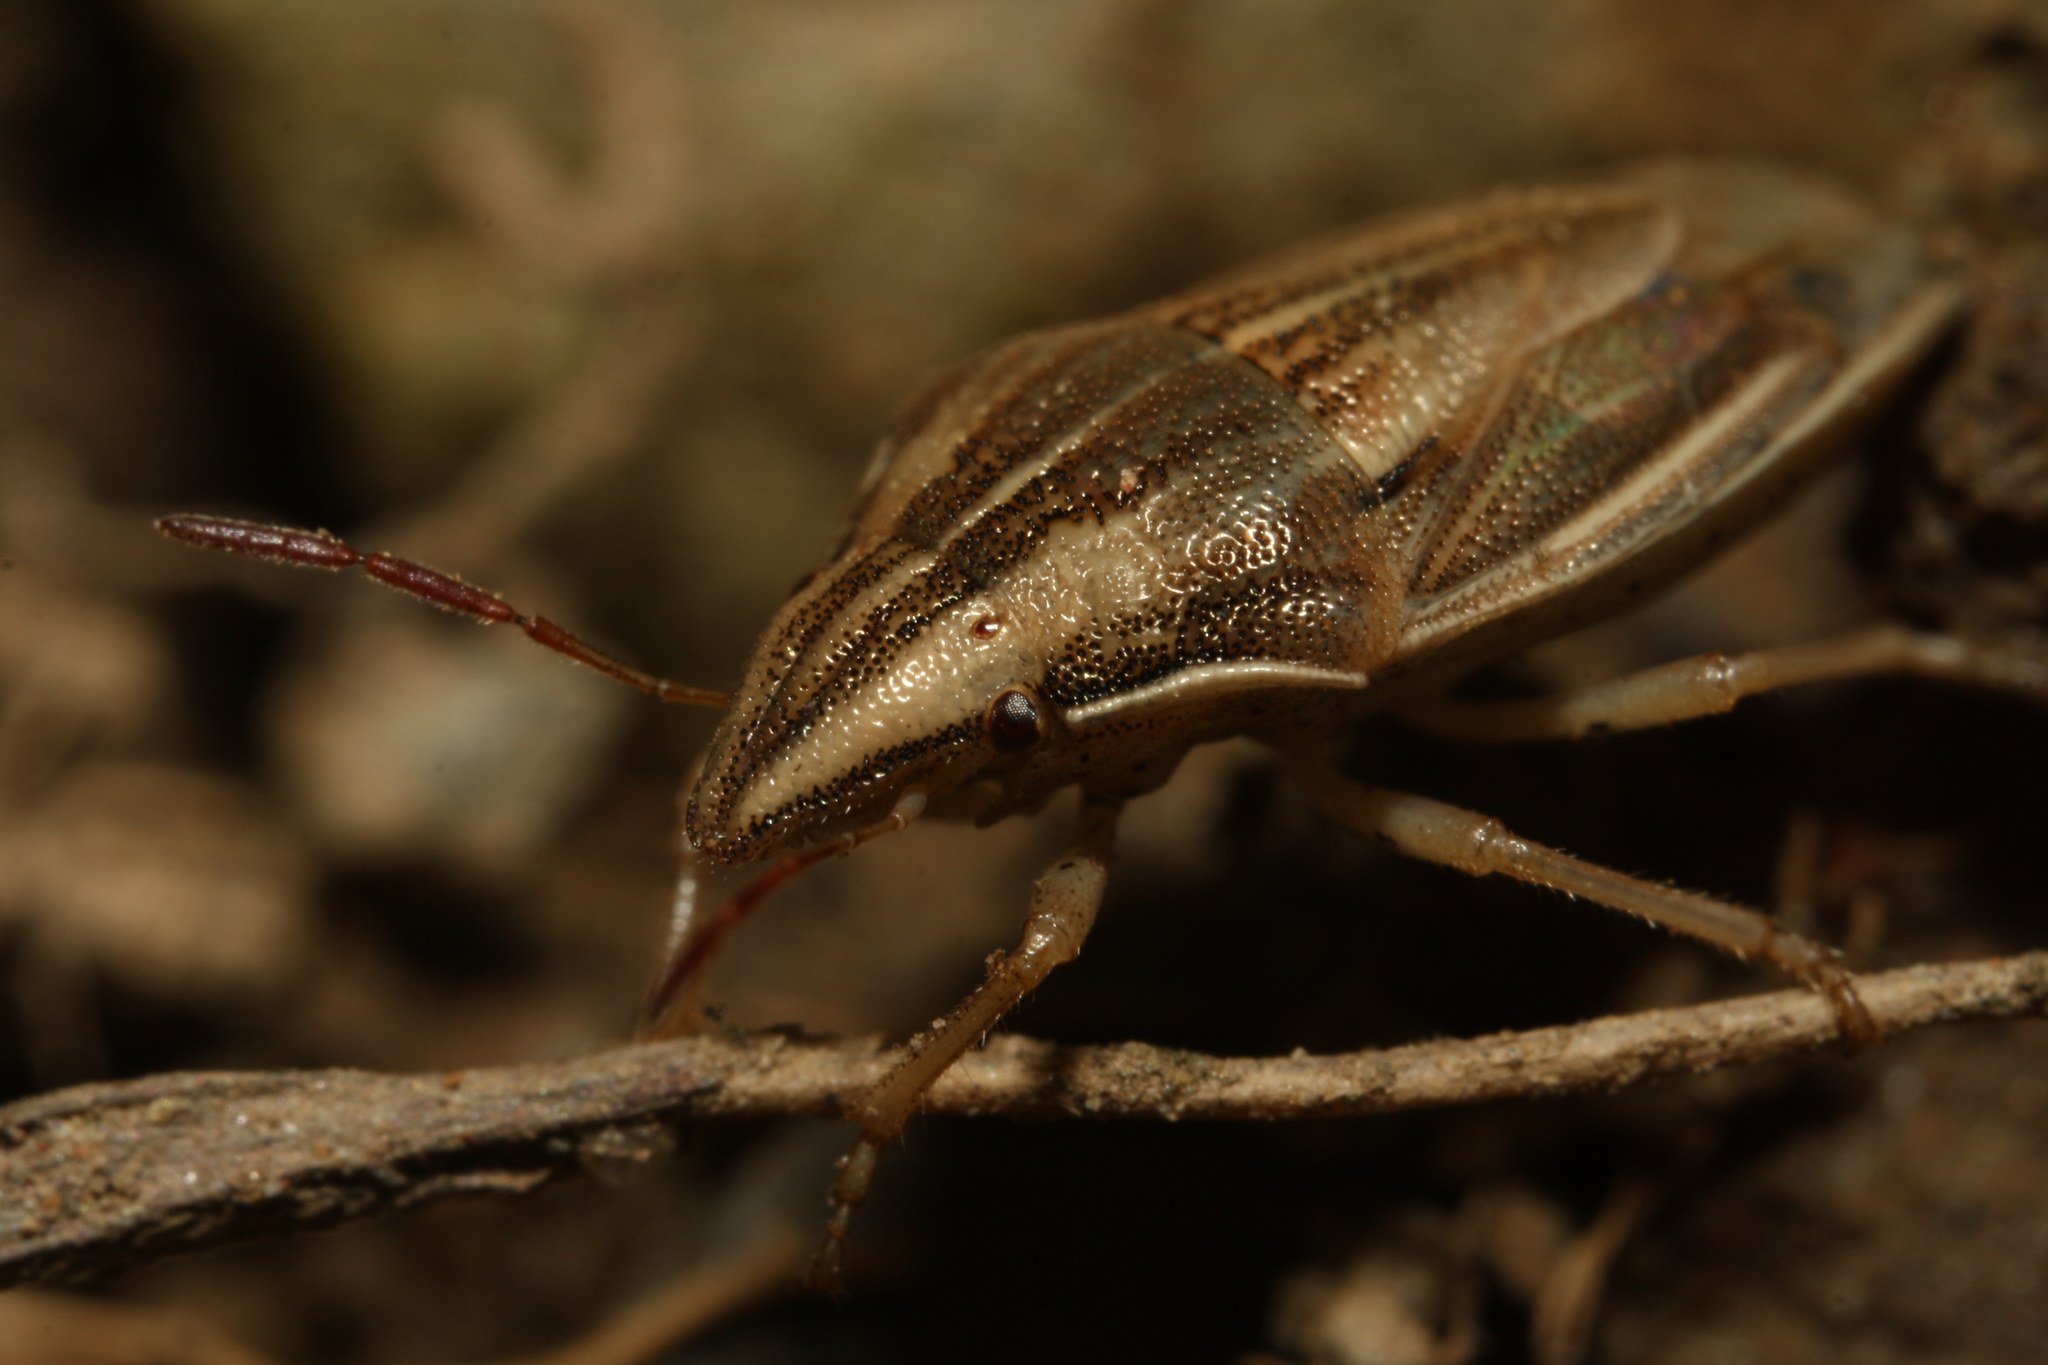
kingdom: Animalia
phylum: Arthropoda
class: Insecta
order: Hemiptera
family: Pentatomidae
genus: Aelia
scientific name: Aelia acuminata
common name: Bishop's mitre
